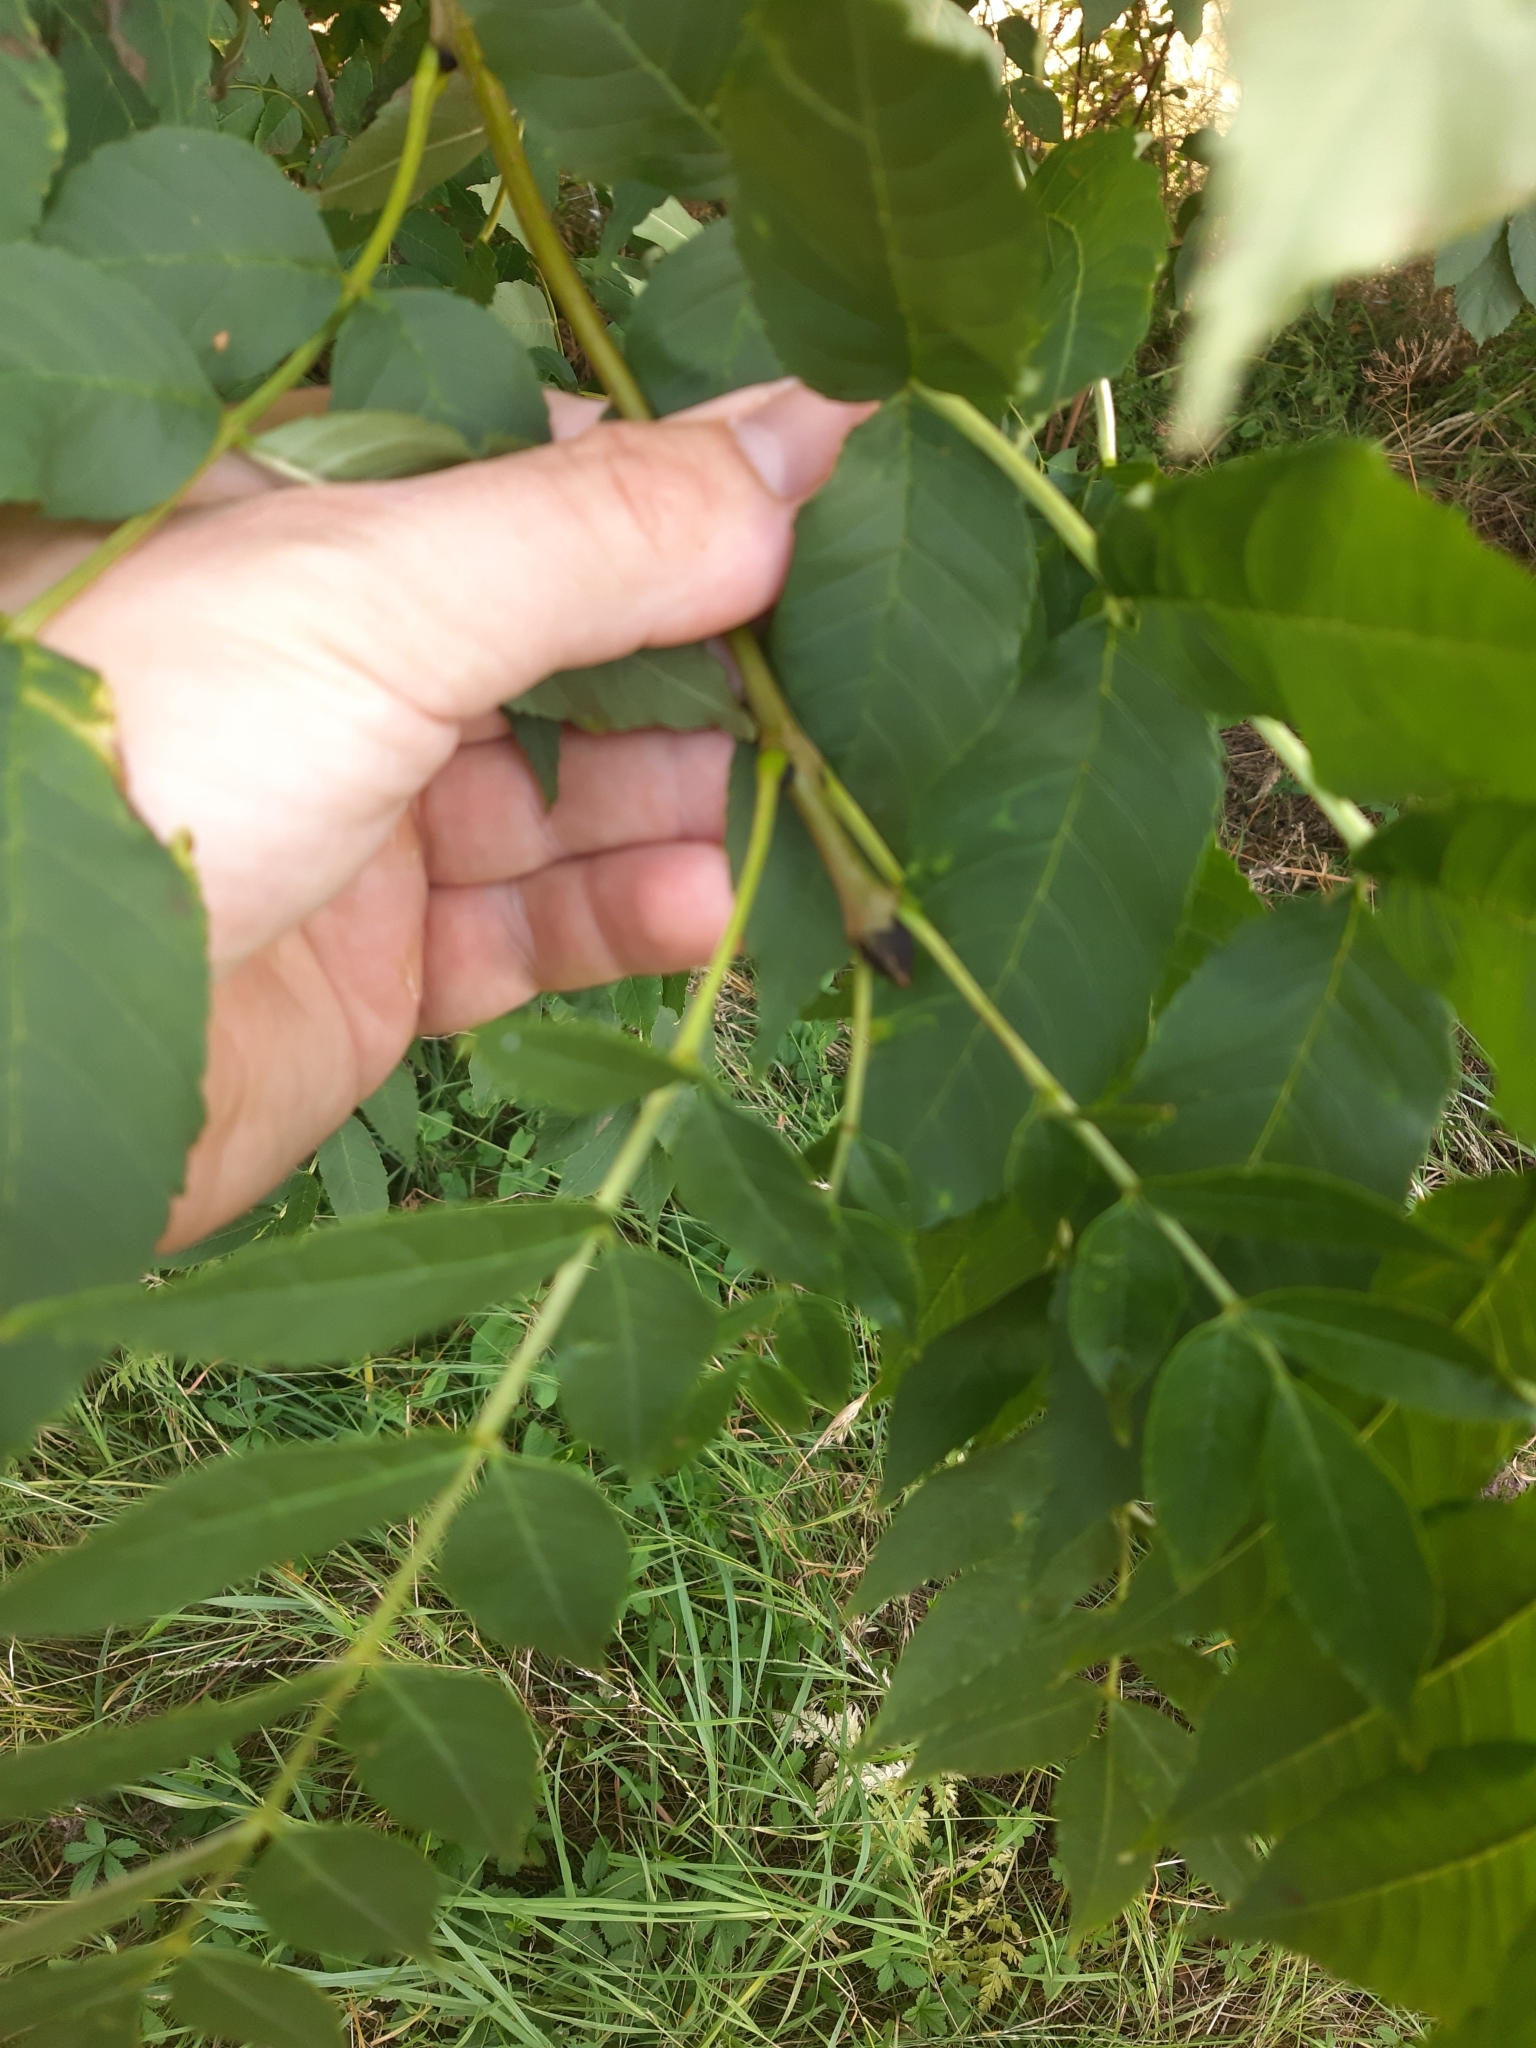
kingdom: Plantae
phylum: Tracheophyta
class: Magnoliopsida
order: Lamiales
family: Oleaceae
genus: Fraxinus
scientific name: Fraxinus excelsior
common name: European ash
